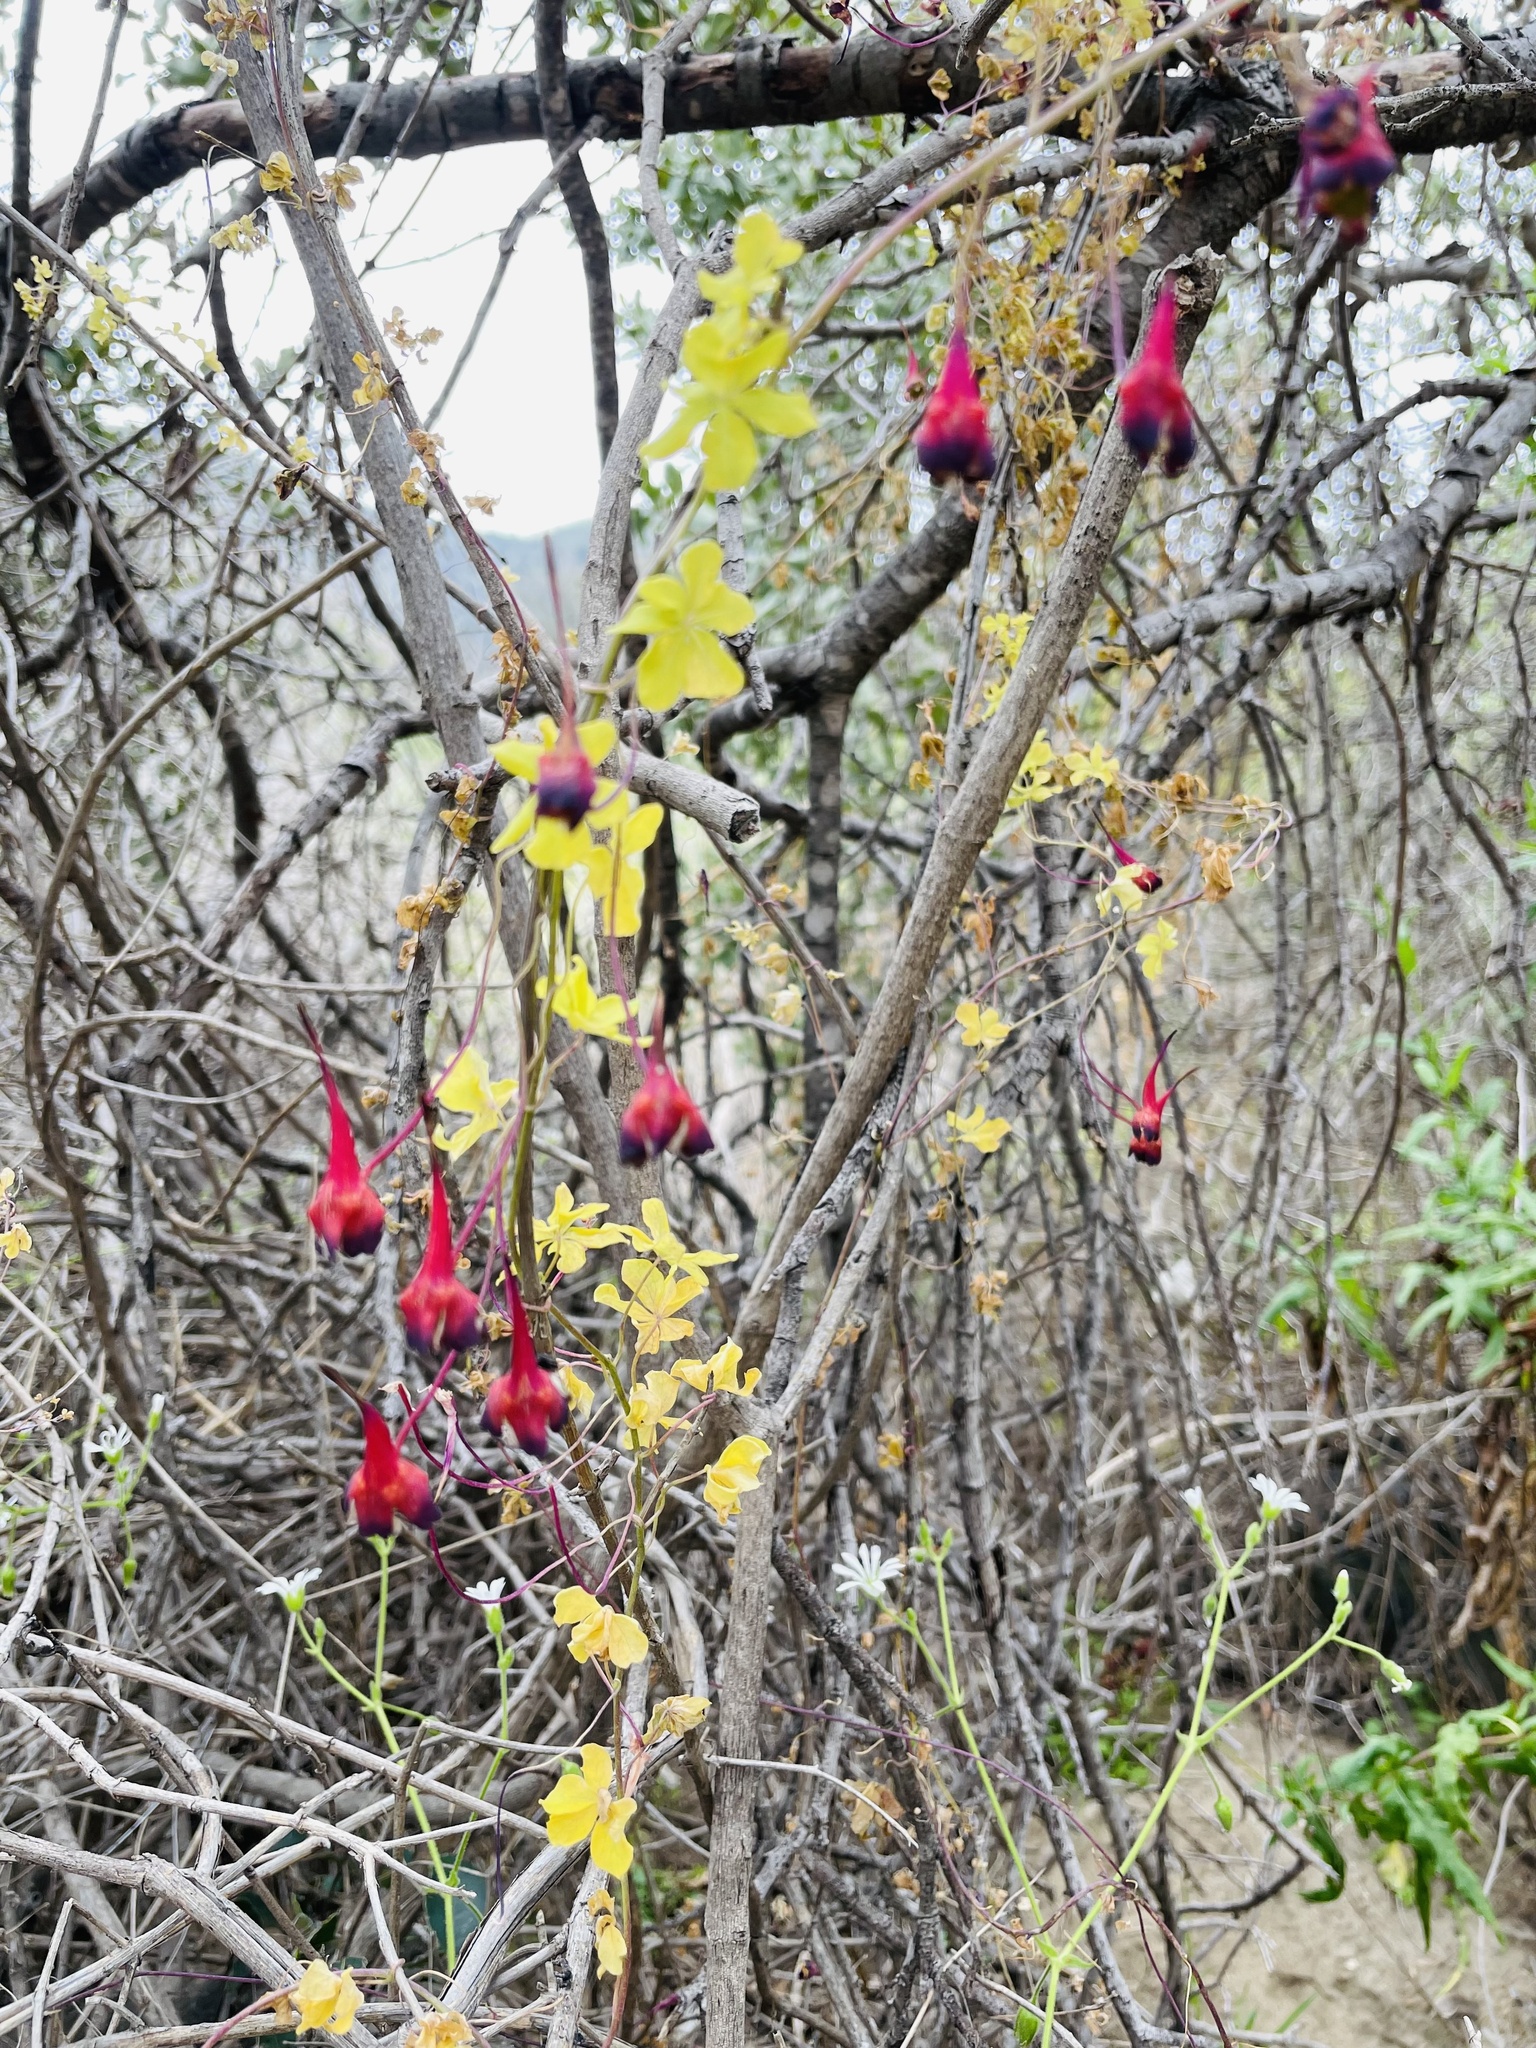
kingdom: Plantae
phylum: Tracheophyta
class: Magnoliopsida
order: Brassicales
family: Tropaeolaceae
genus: Tropaeolum
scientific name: Tropaeolum tricolor
